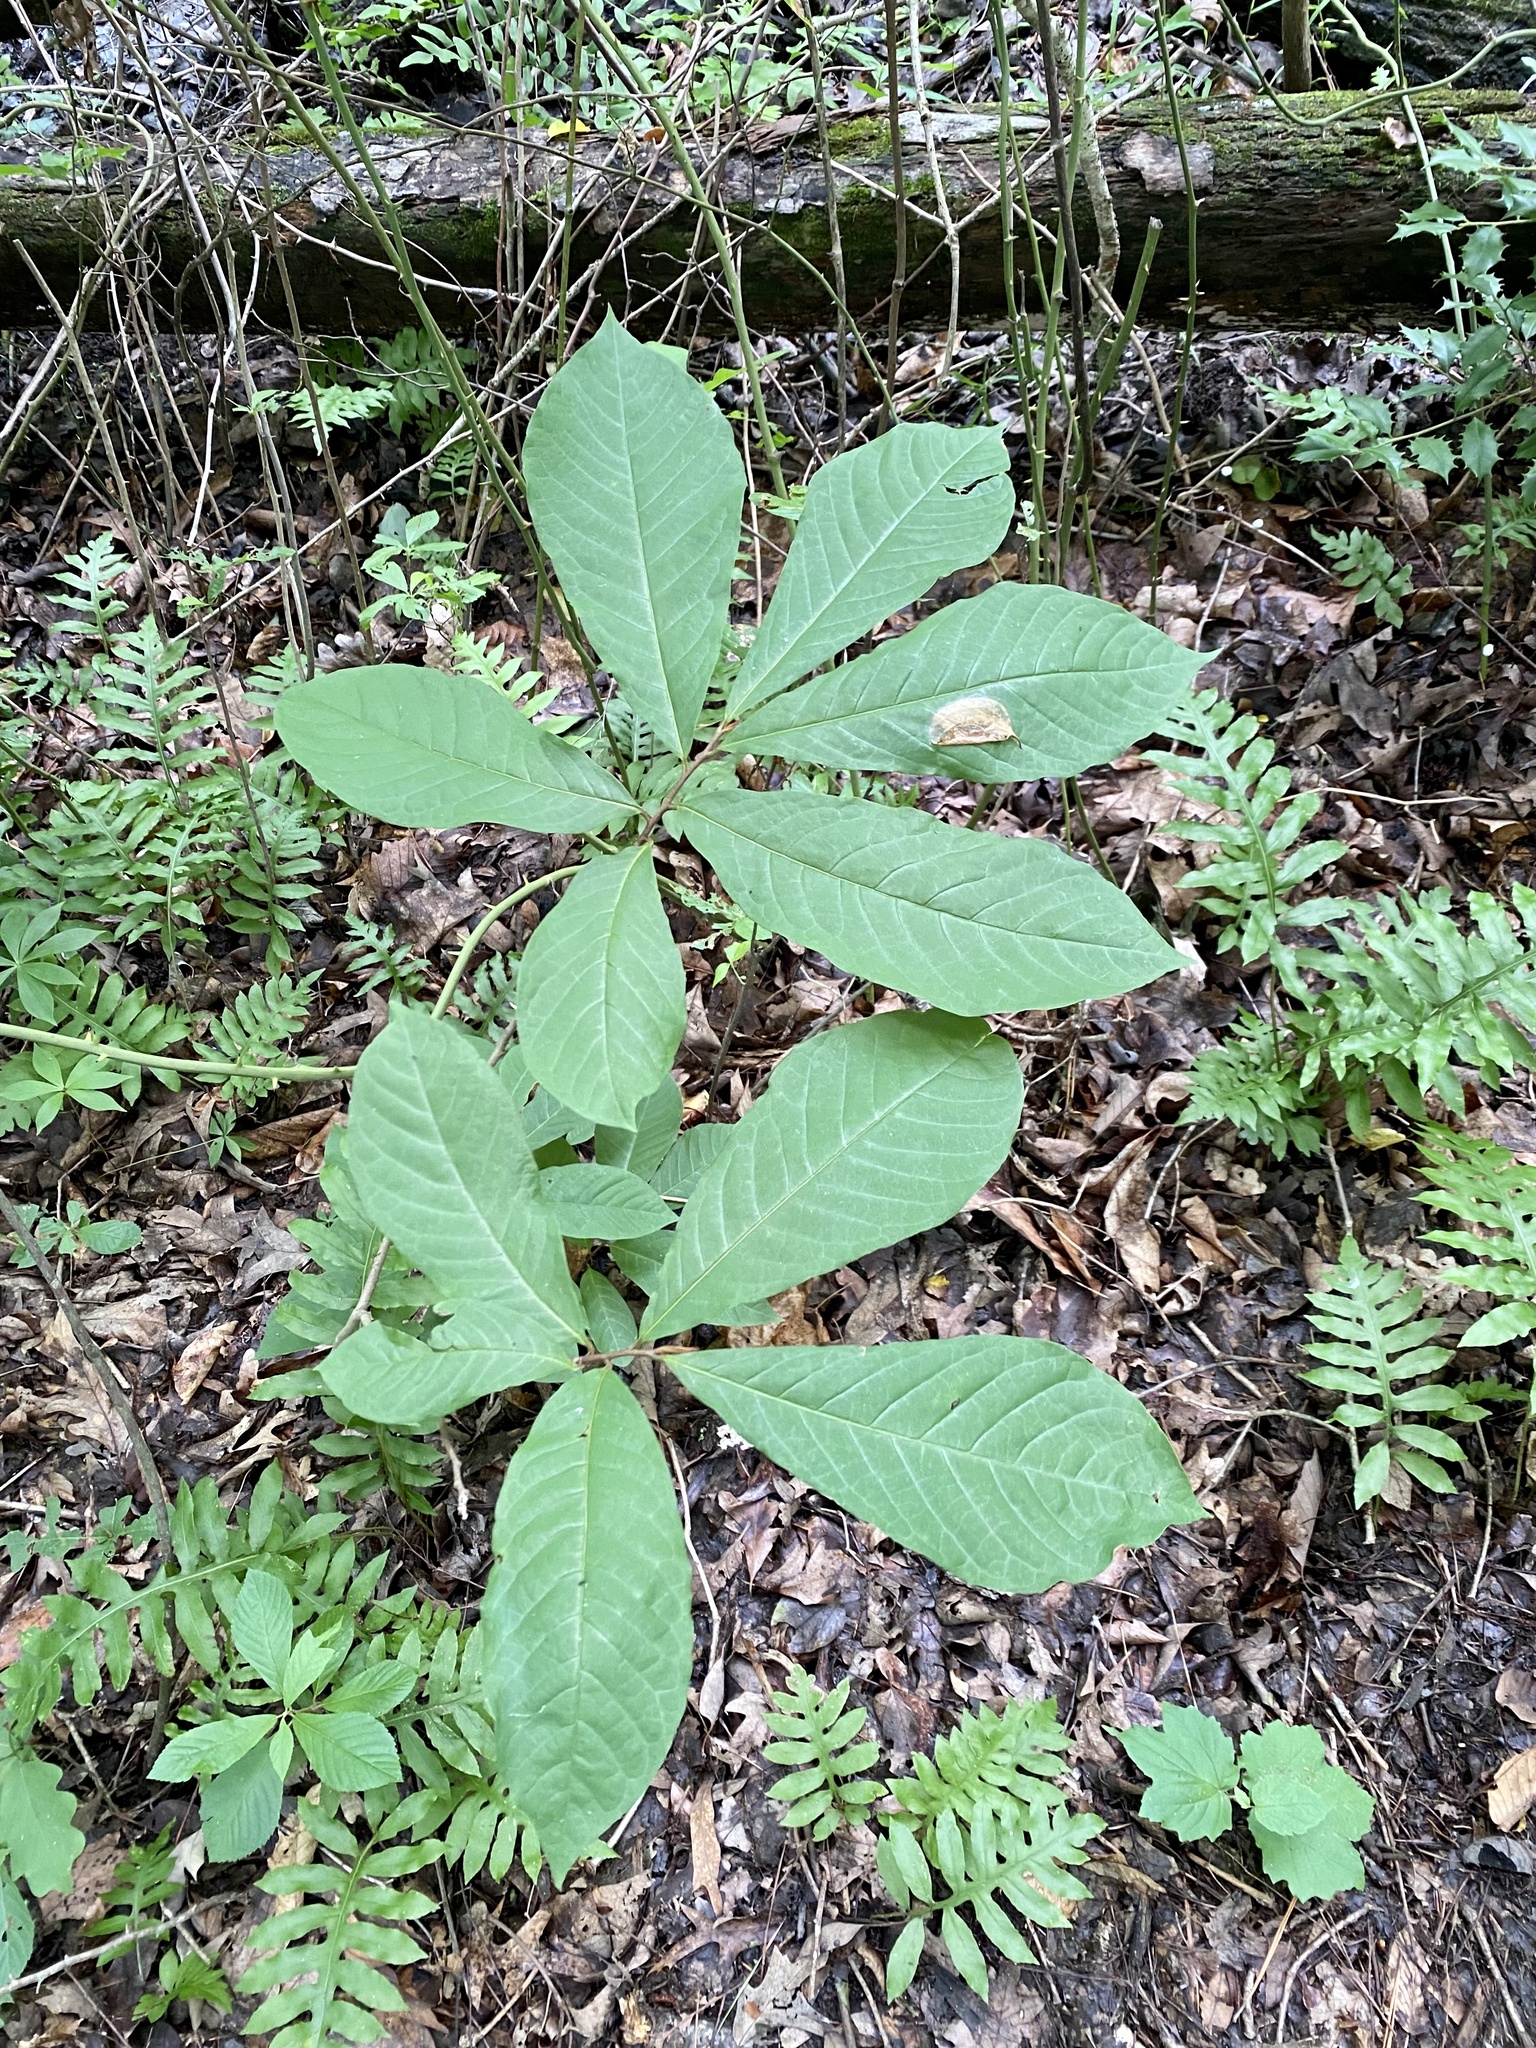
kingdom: Plantae
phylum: Tracheophyta
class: Magnoliopsida
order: Magnoliales
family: Annonaceae
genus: Asimina
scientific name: Asimina triloba
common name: Dog-banana
